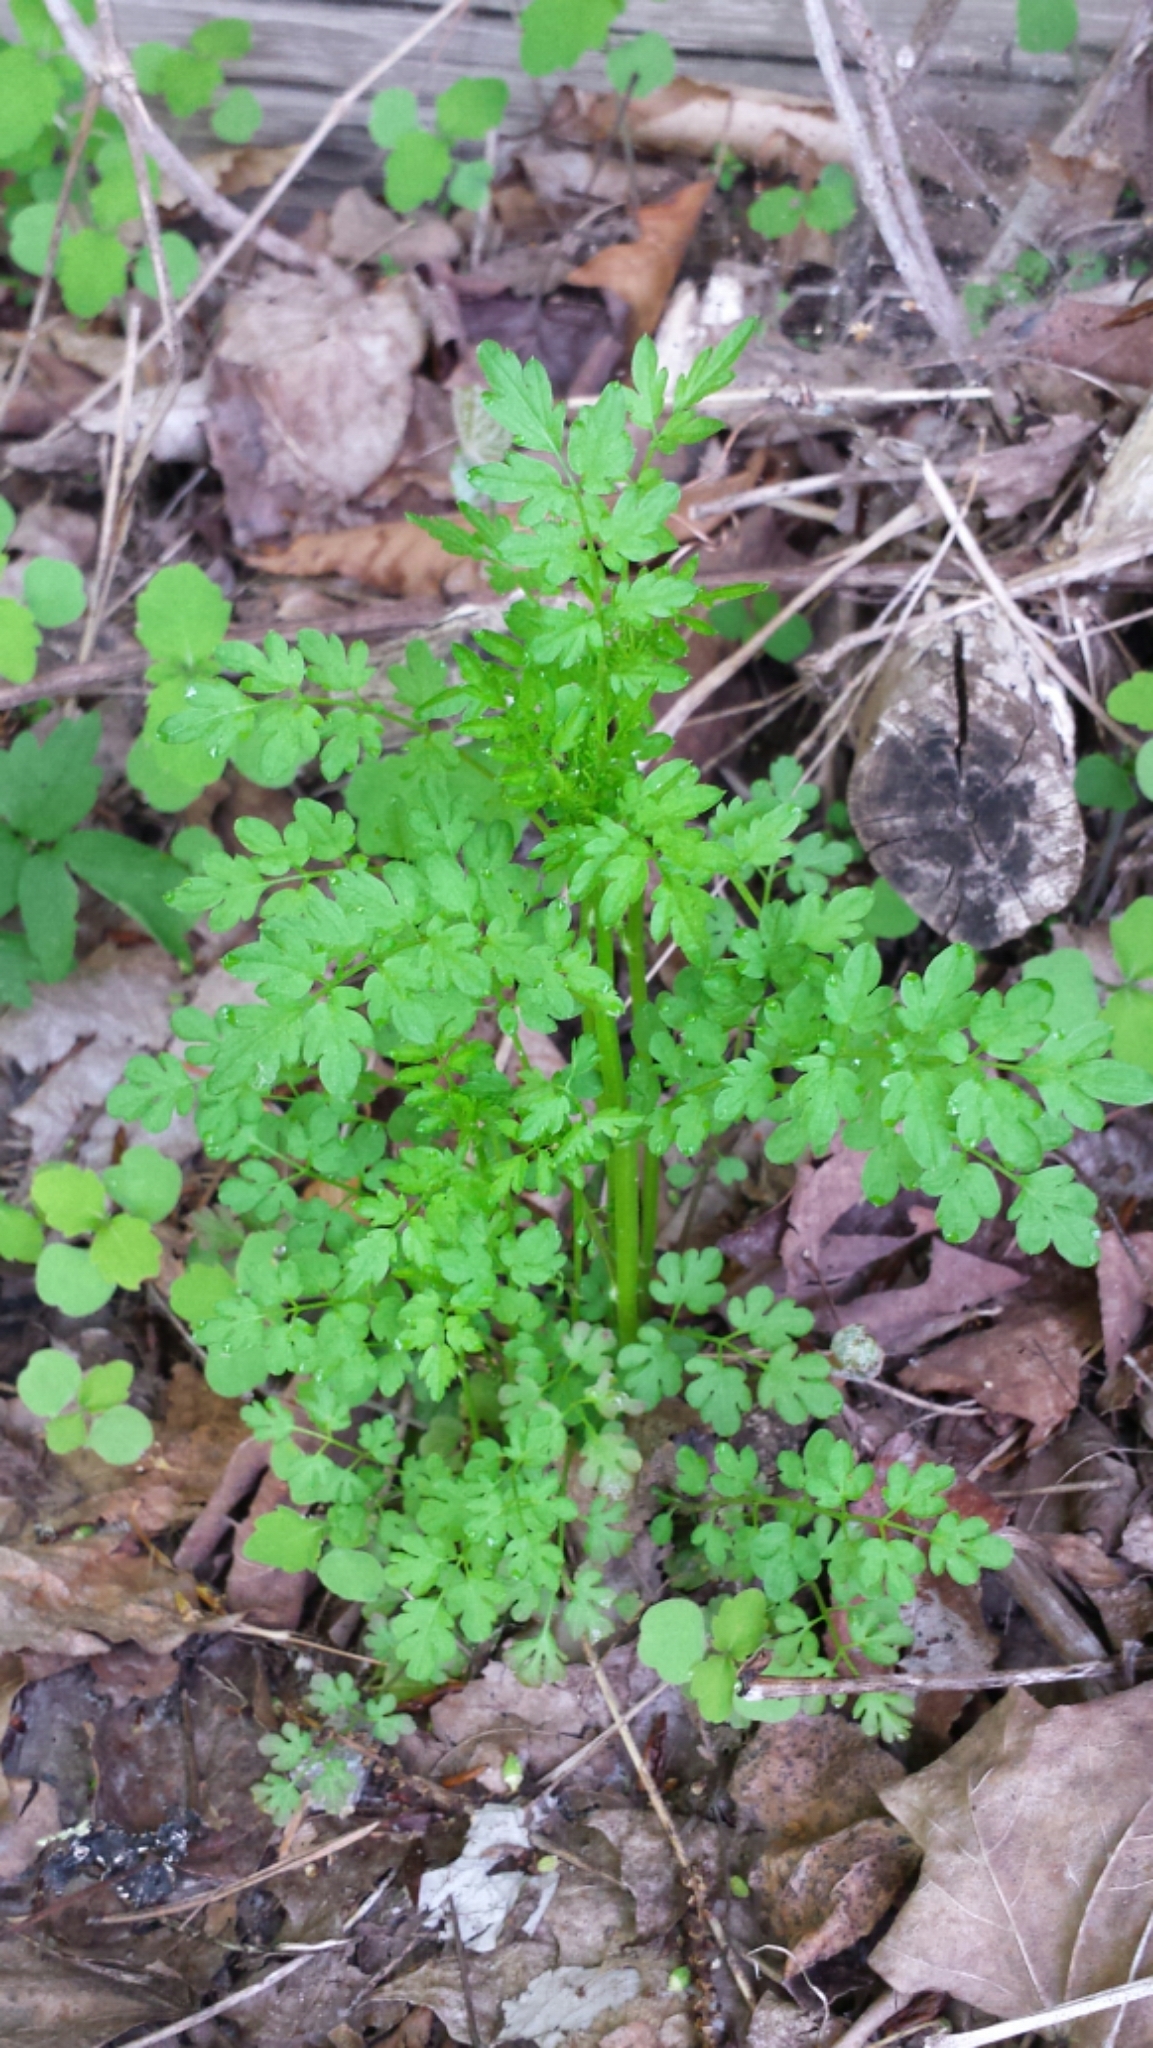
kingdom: Plantae
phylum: Tracheophyta
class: Magnoliopsida
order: Brassicales
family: Brassicaceae
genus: Cardamine
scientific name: Cardamine impatiens
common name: Narrow-leaved bitter-cress
